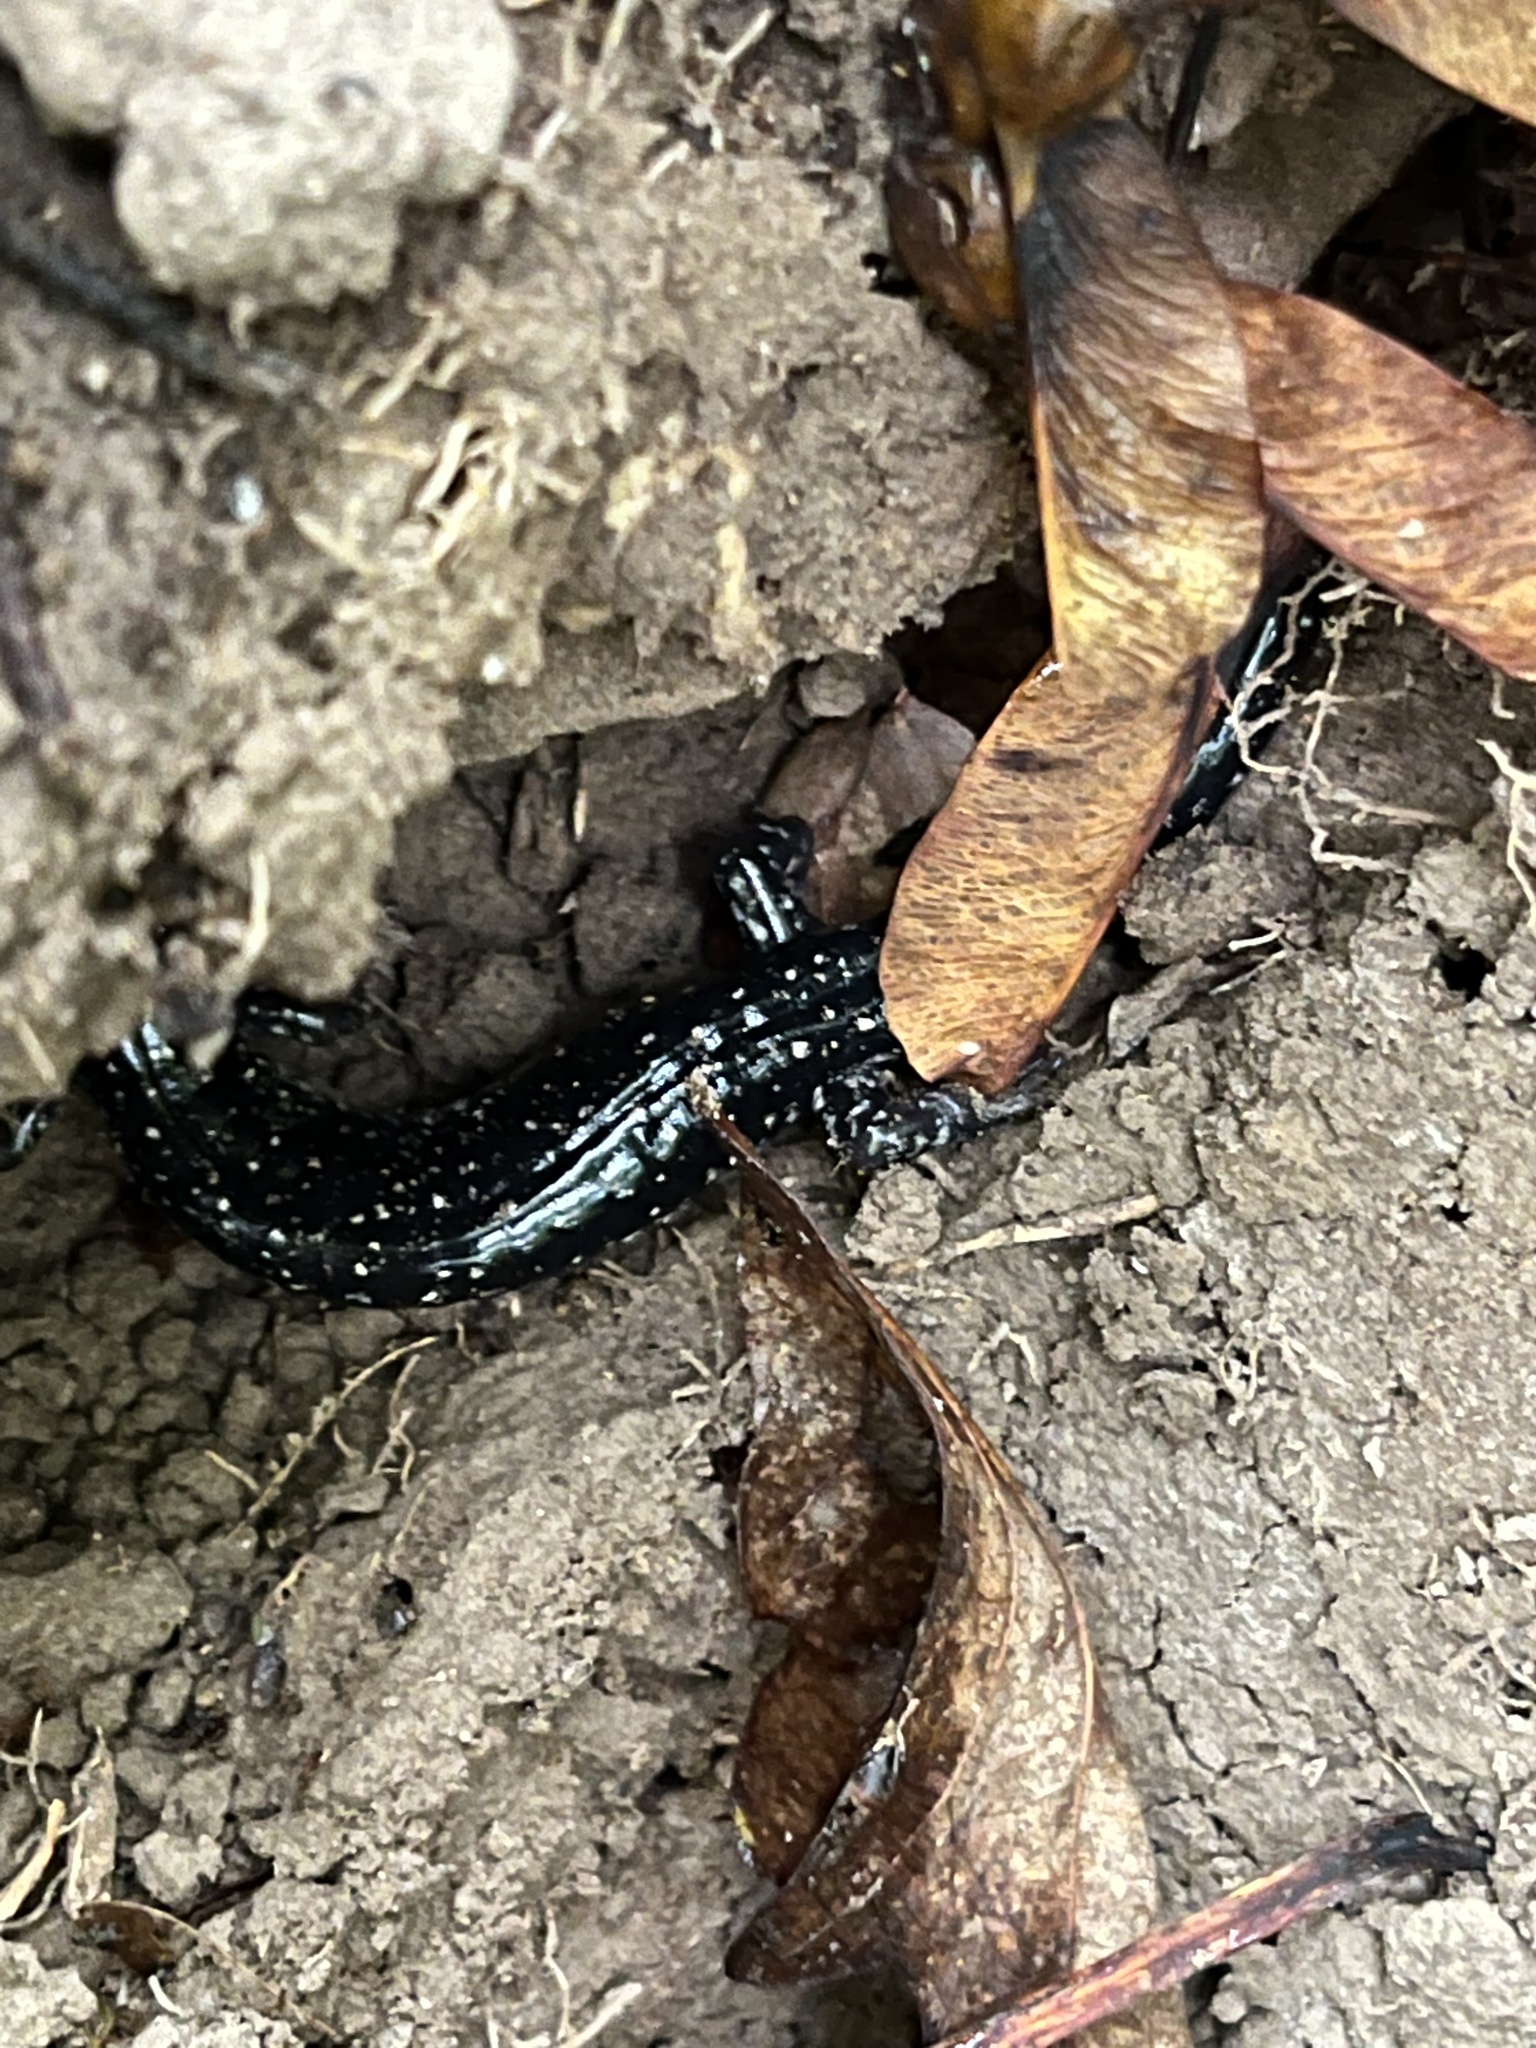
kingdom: Animalia
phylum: Chordata
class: Amphibia
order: Caudata
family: Plethodontidae
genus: Plethodon
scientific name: Plethodon glutinosus
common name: Northern slimy salamander
